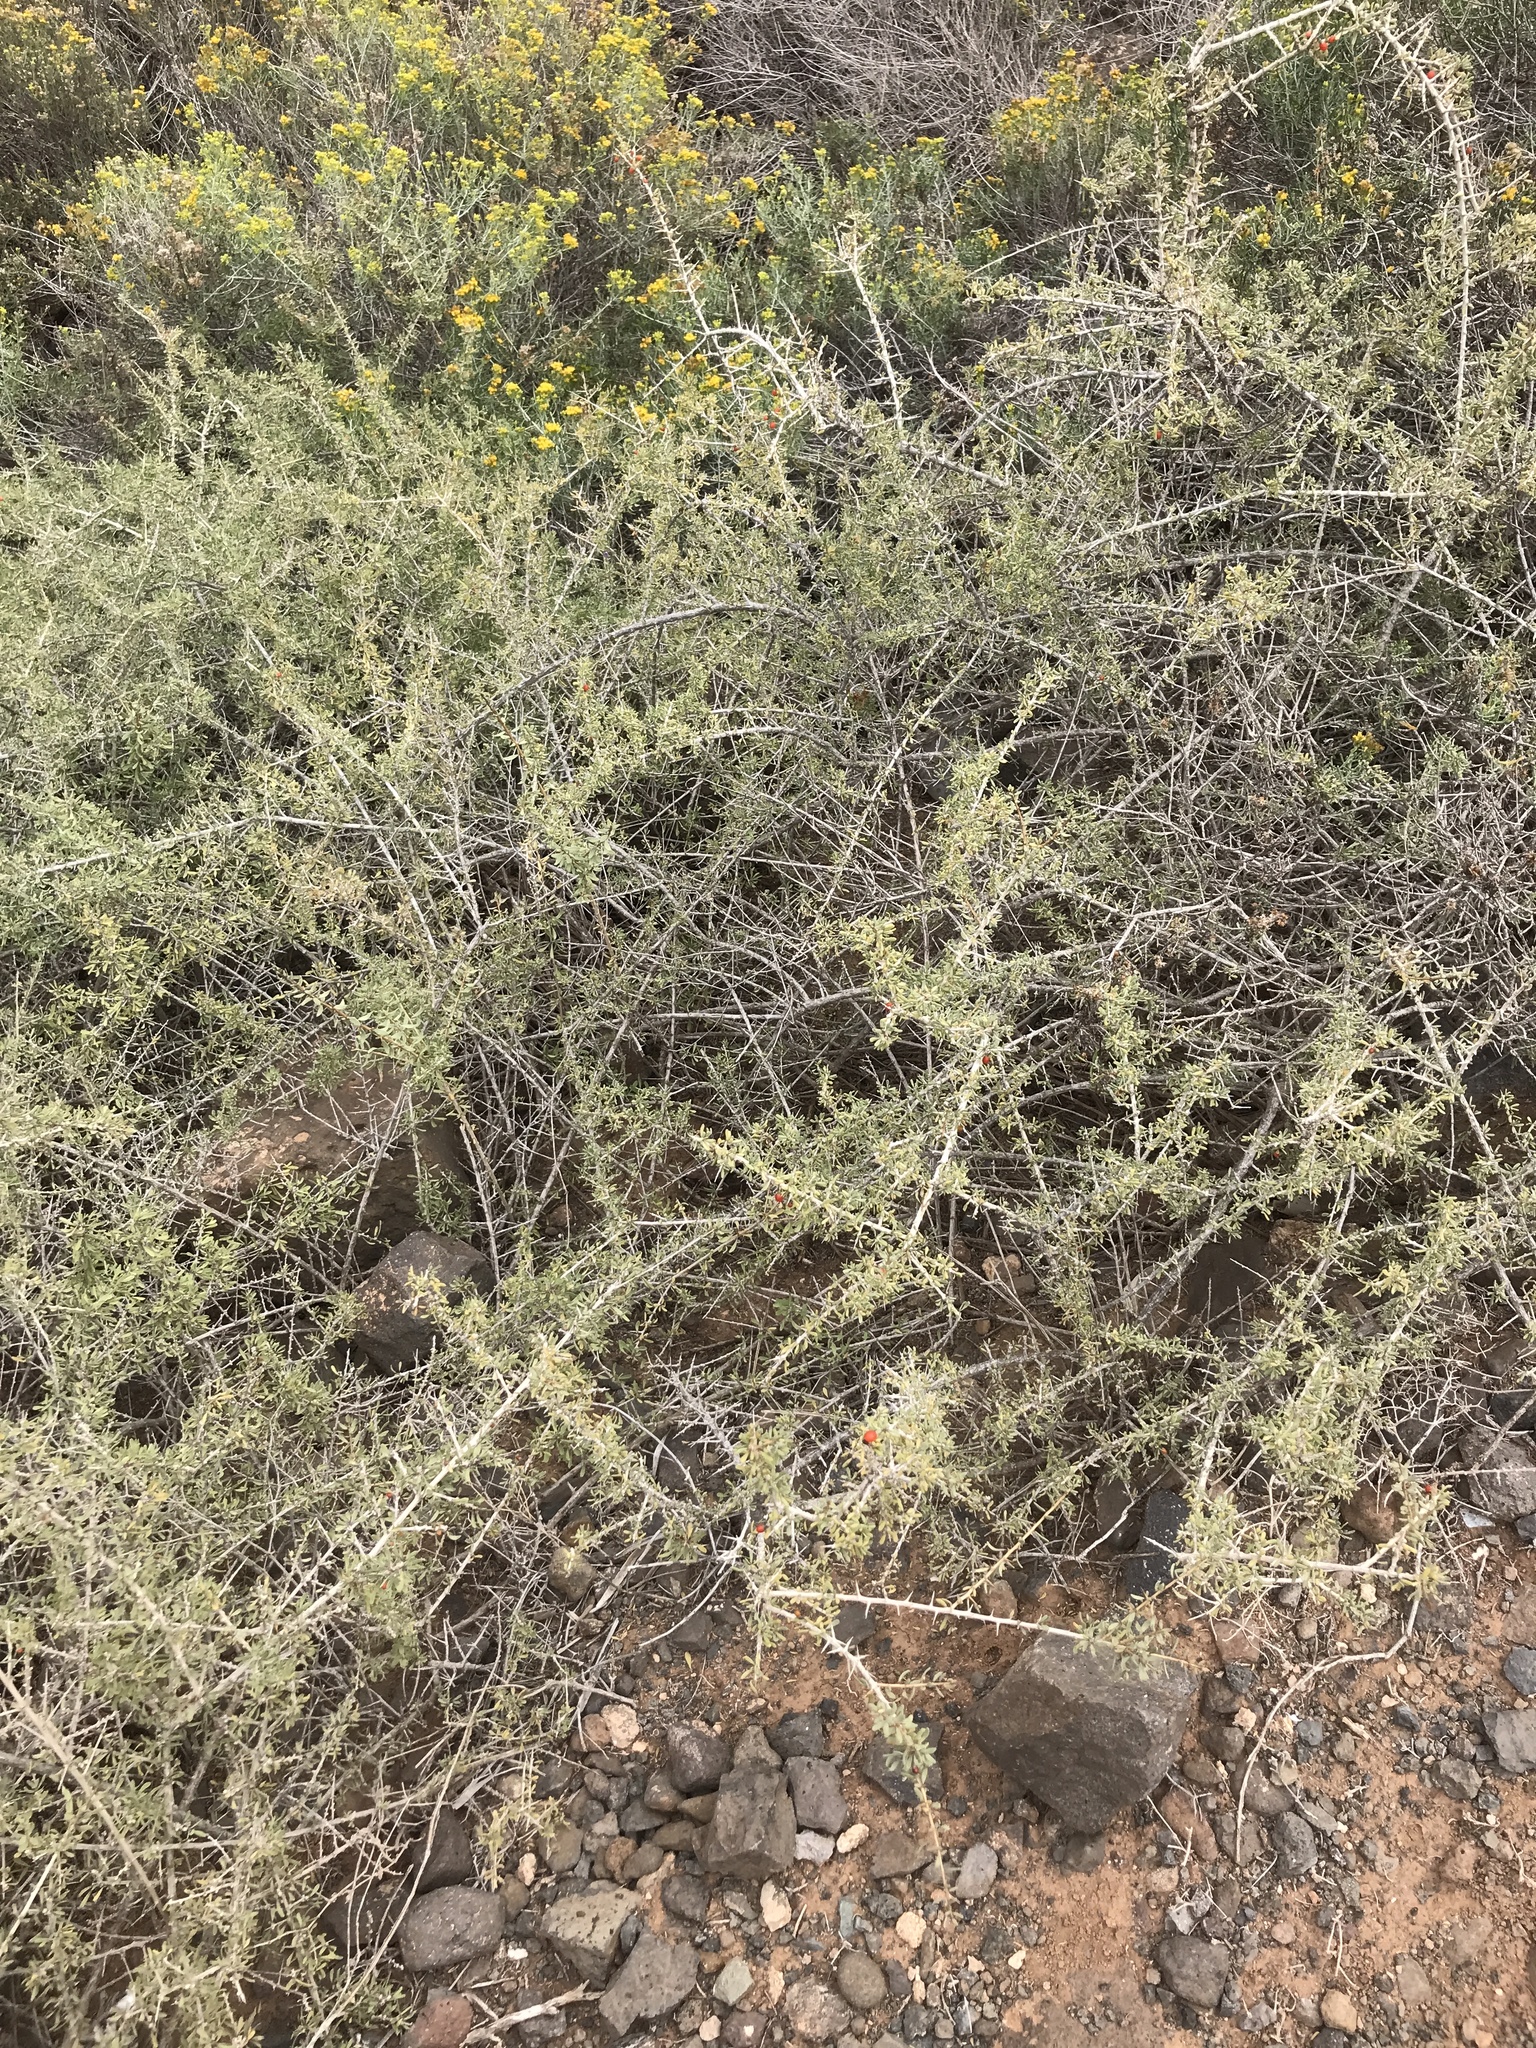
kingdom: Plantae
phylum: Tracheophyta
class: Magnoliopsida
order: Solanales
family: Solanaceae
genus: Lycium
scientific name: Lycium intricatum
